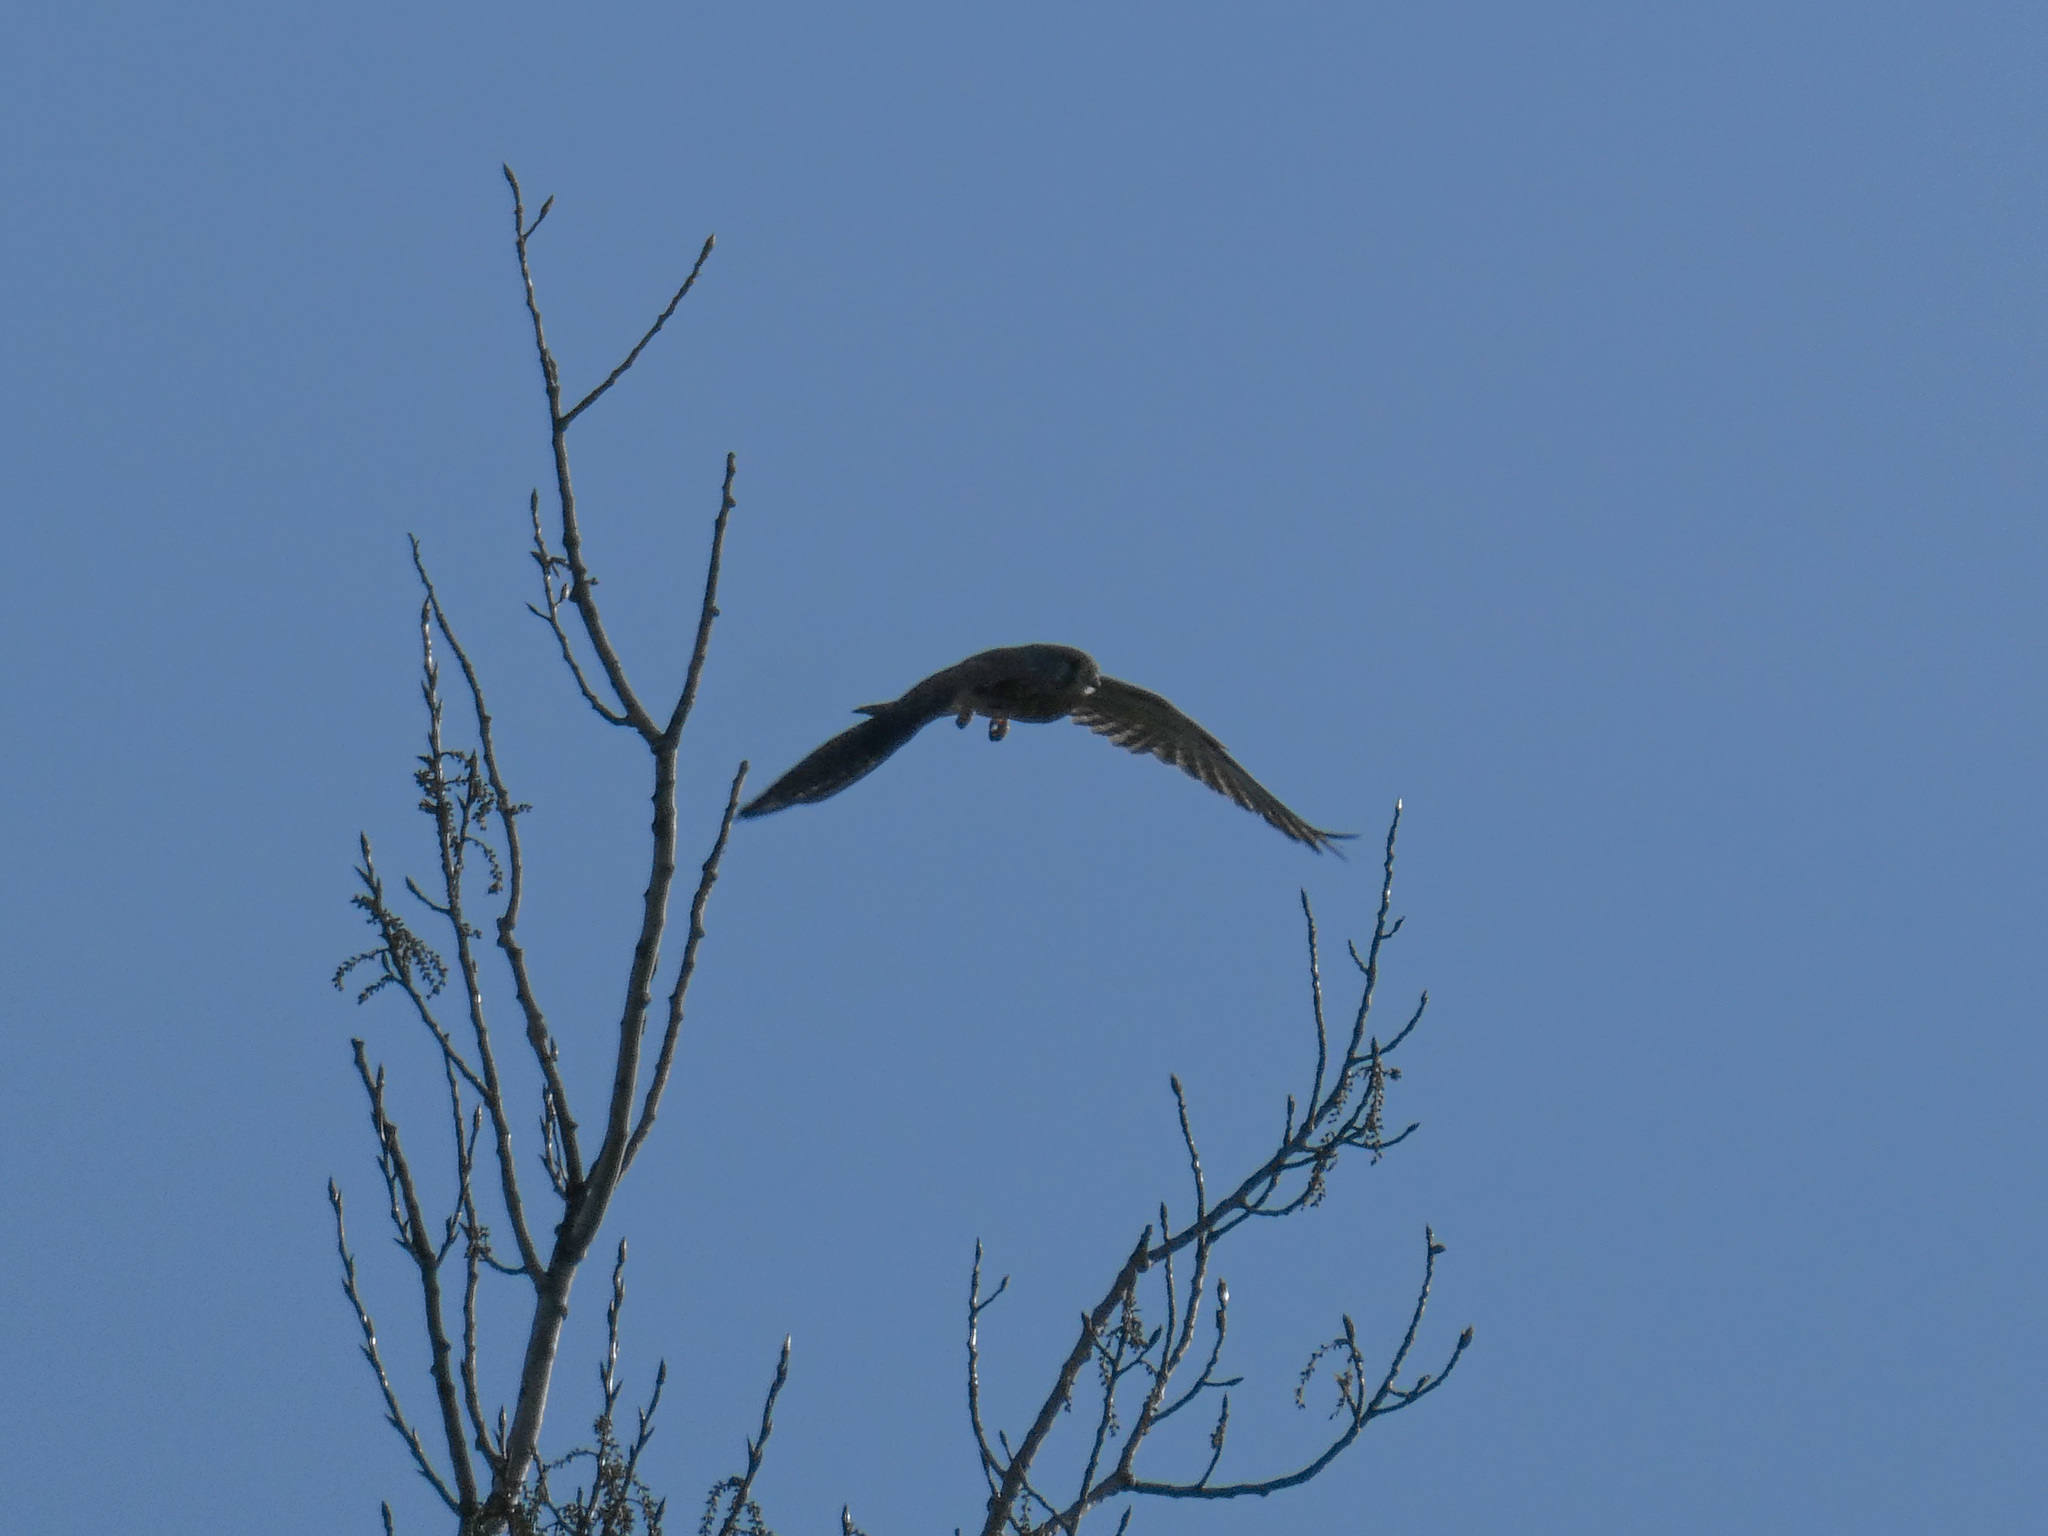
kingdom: Animalia
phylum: Chordata
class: Aves
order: Falconiformes
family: Falconidae
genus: Falco
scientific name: Falco tinnunculus
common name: Common kestrel
